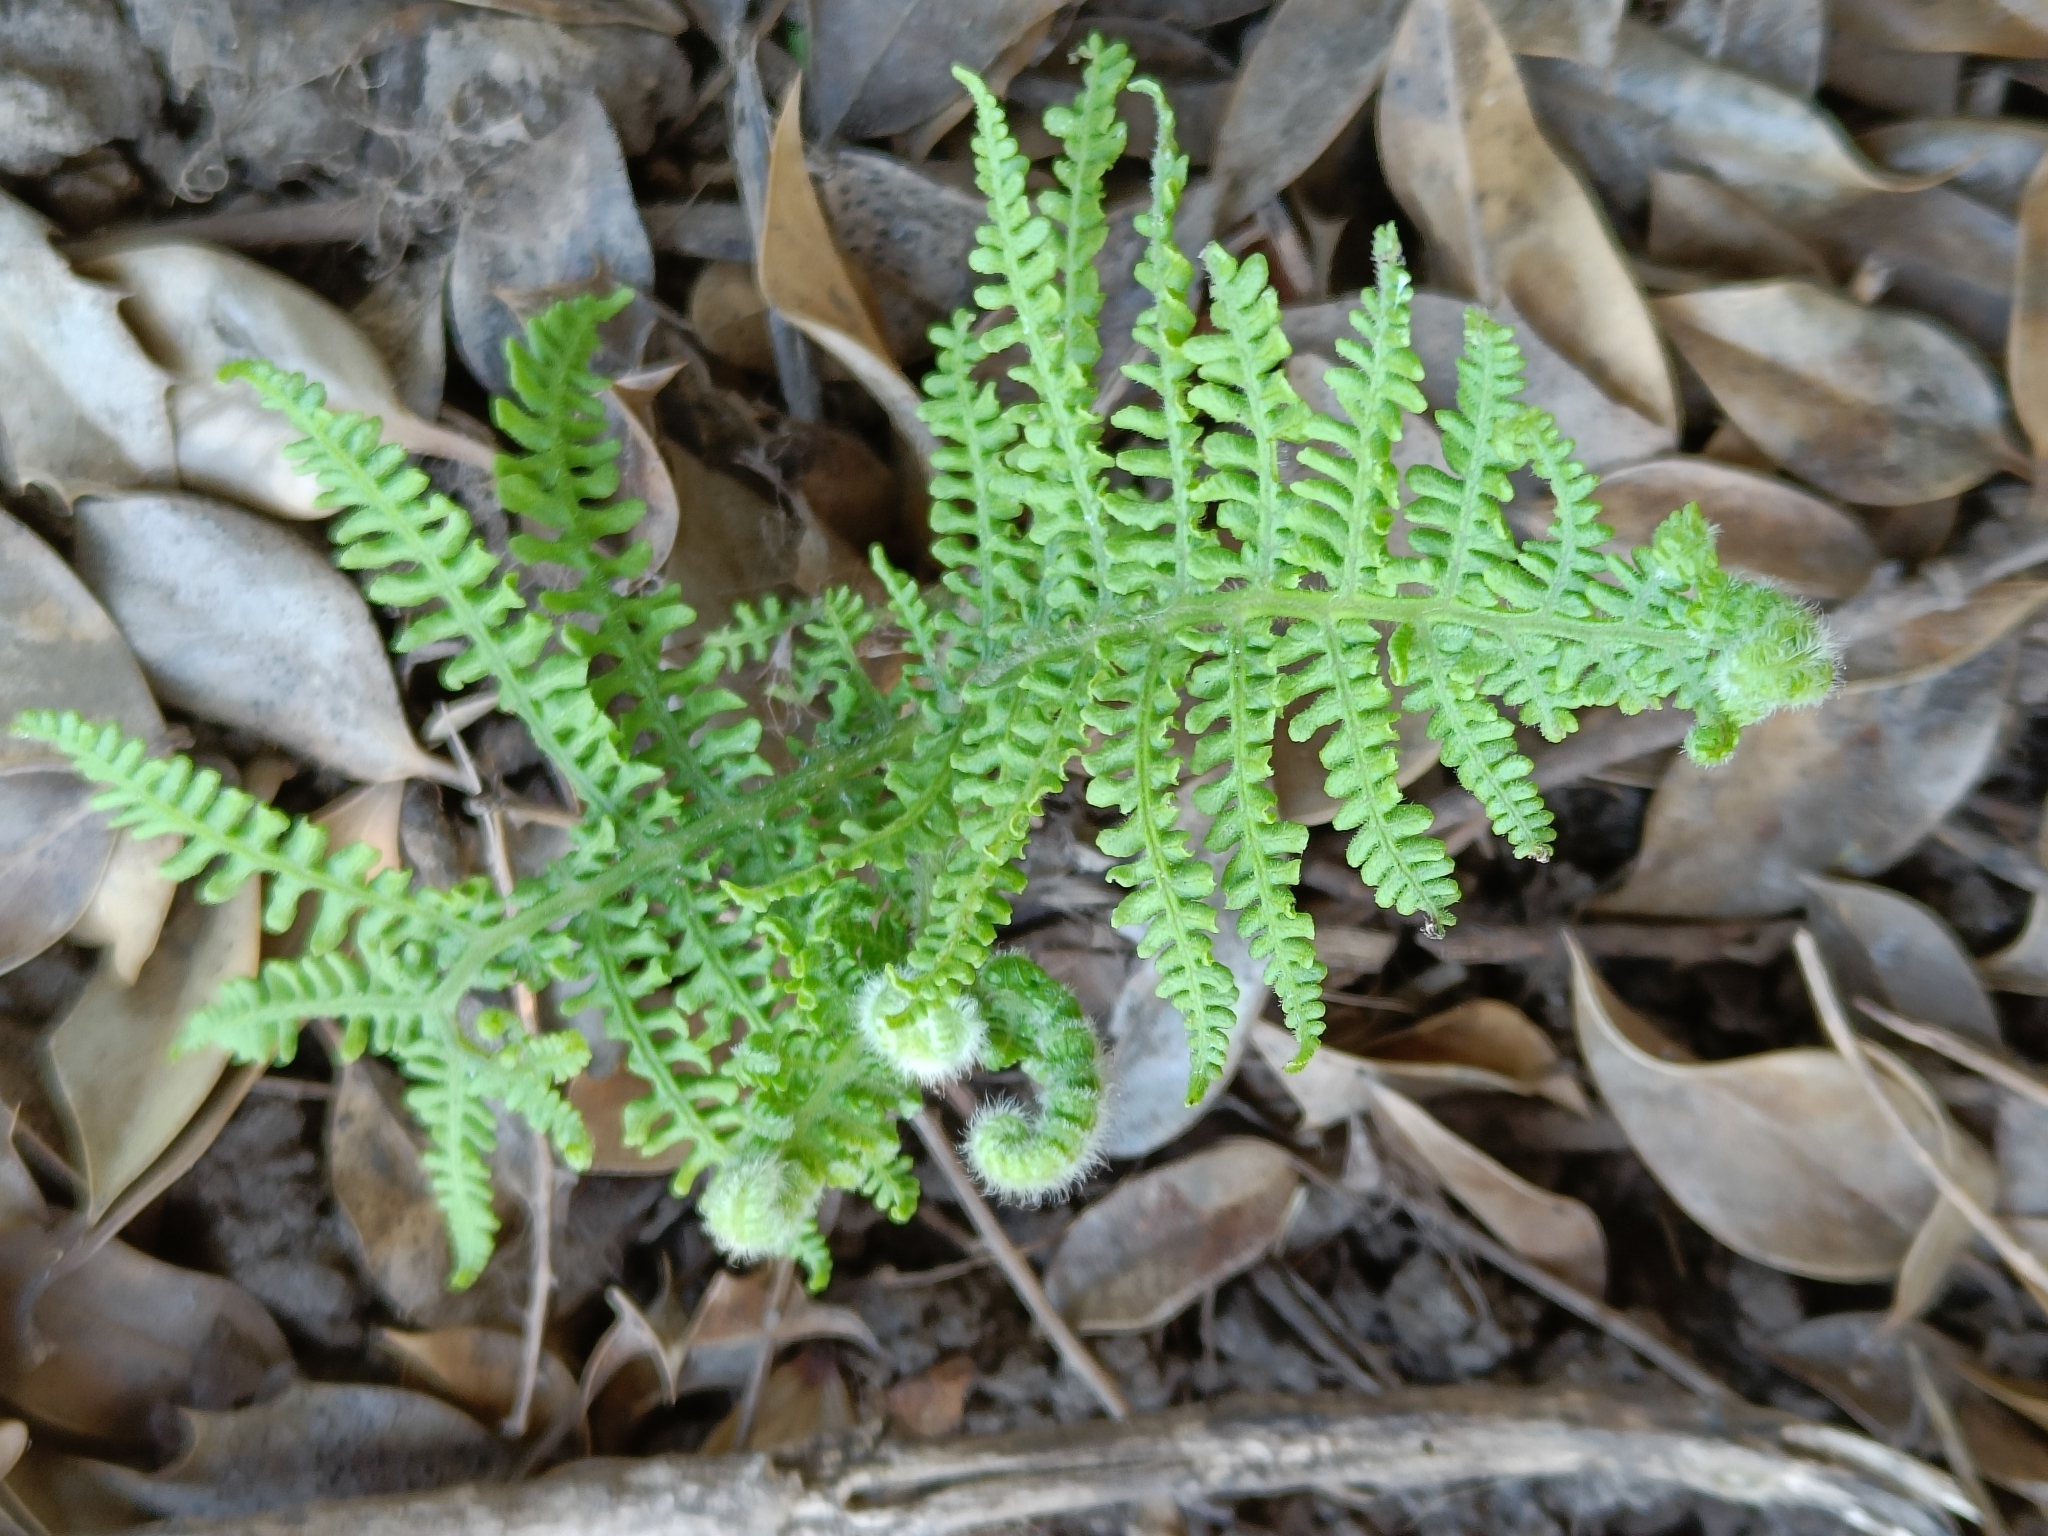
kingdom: Plantae
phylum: Tracheophyta
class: Polypodiopsida
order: Polypodiales
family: Dennstaedtiaceae
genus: Pteridium
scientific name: Pteridium aquilinum
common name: Bracken
